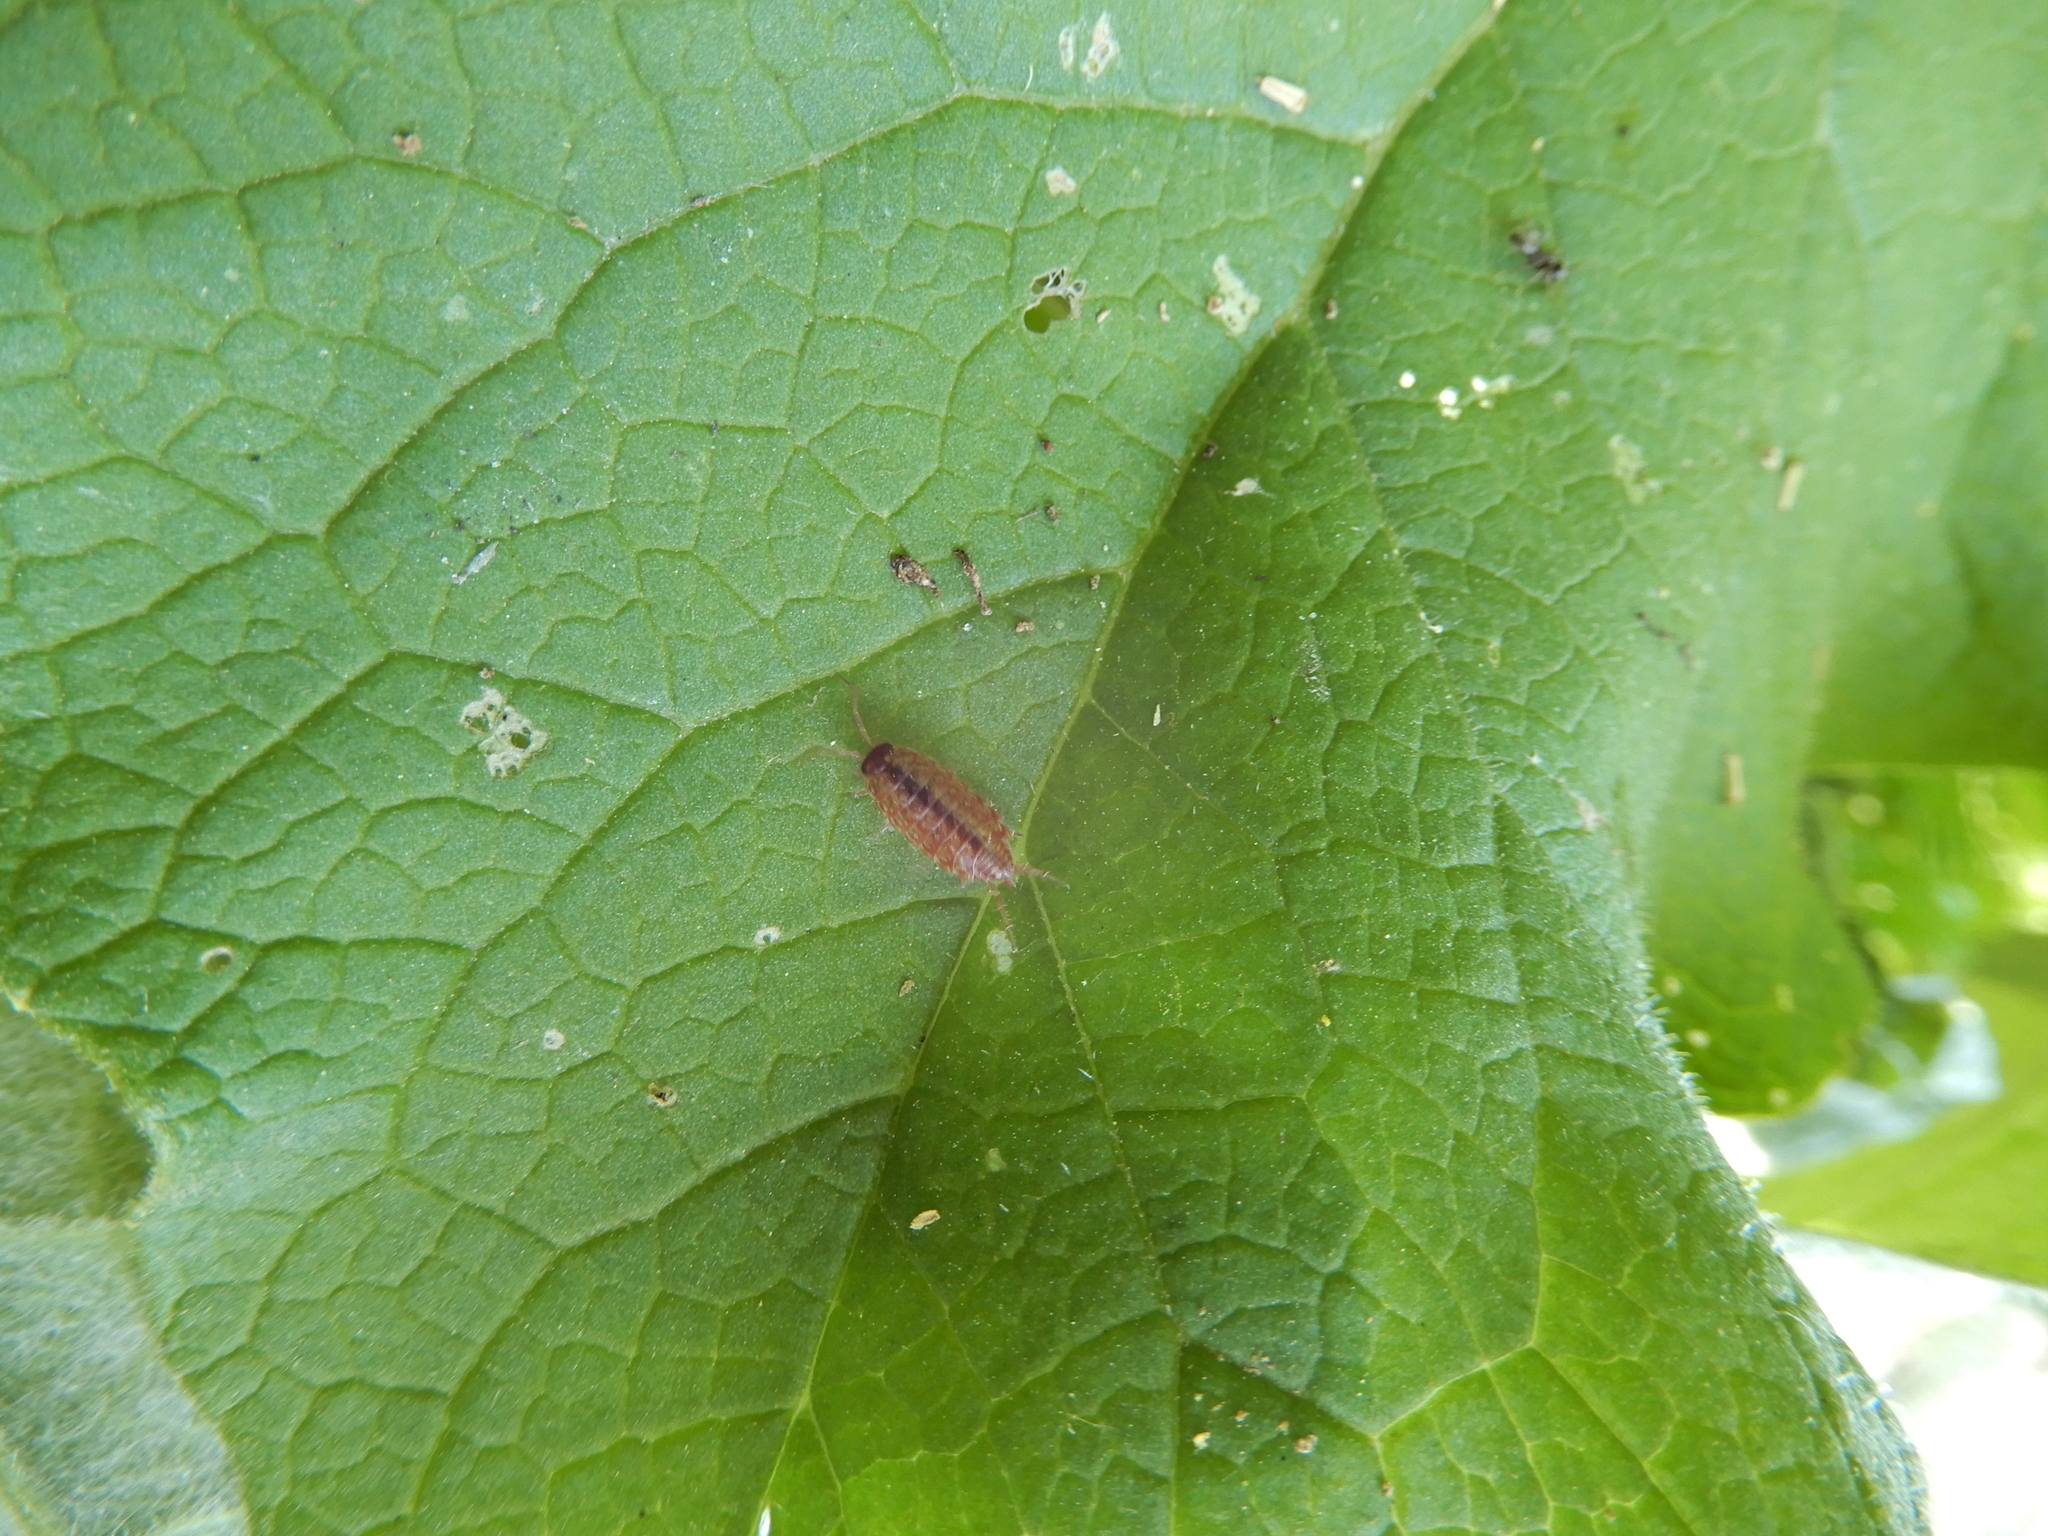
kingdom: Animalia
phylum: Arthropoda
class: Malacostraca
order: Isopoda
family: Philosciidae
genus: Philoscia
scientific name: Philoscia muscorum
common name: Common striped woodlouse
